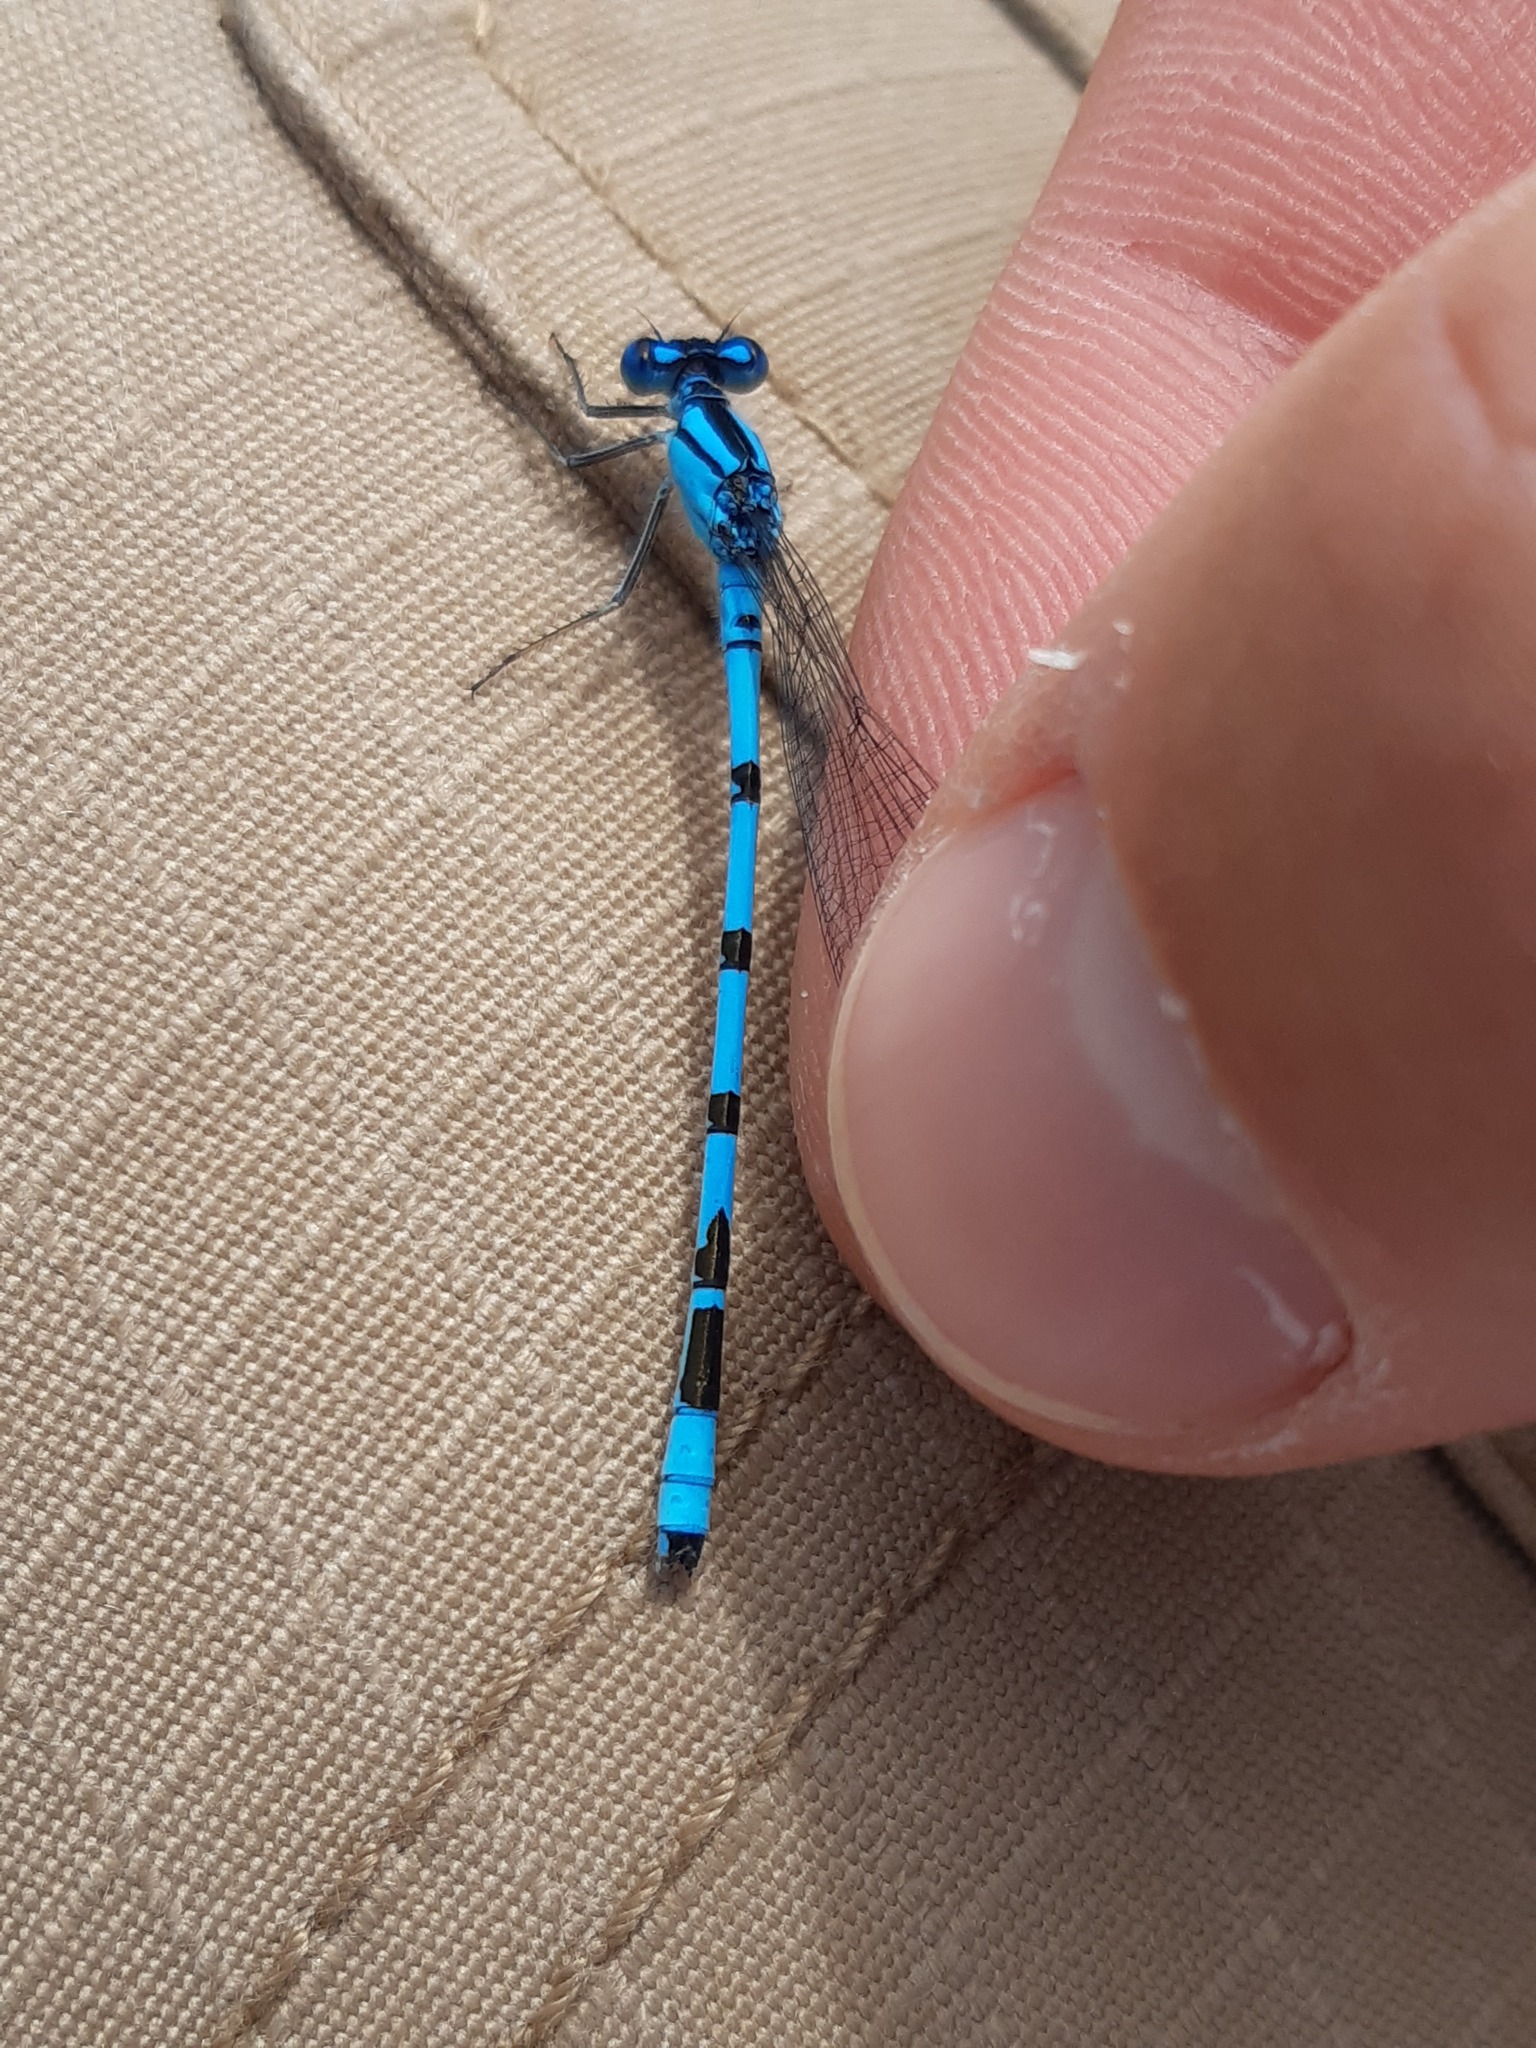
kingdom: Animalia
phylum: Arthropoda
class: Insecta
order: Odonata
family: Coenagrionidae
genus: Enallagma
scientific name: Enallagma cyathigerum
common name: Common blue damselfly
